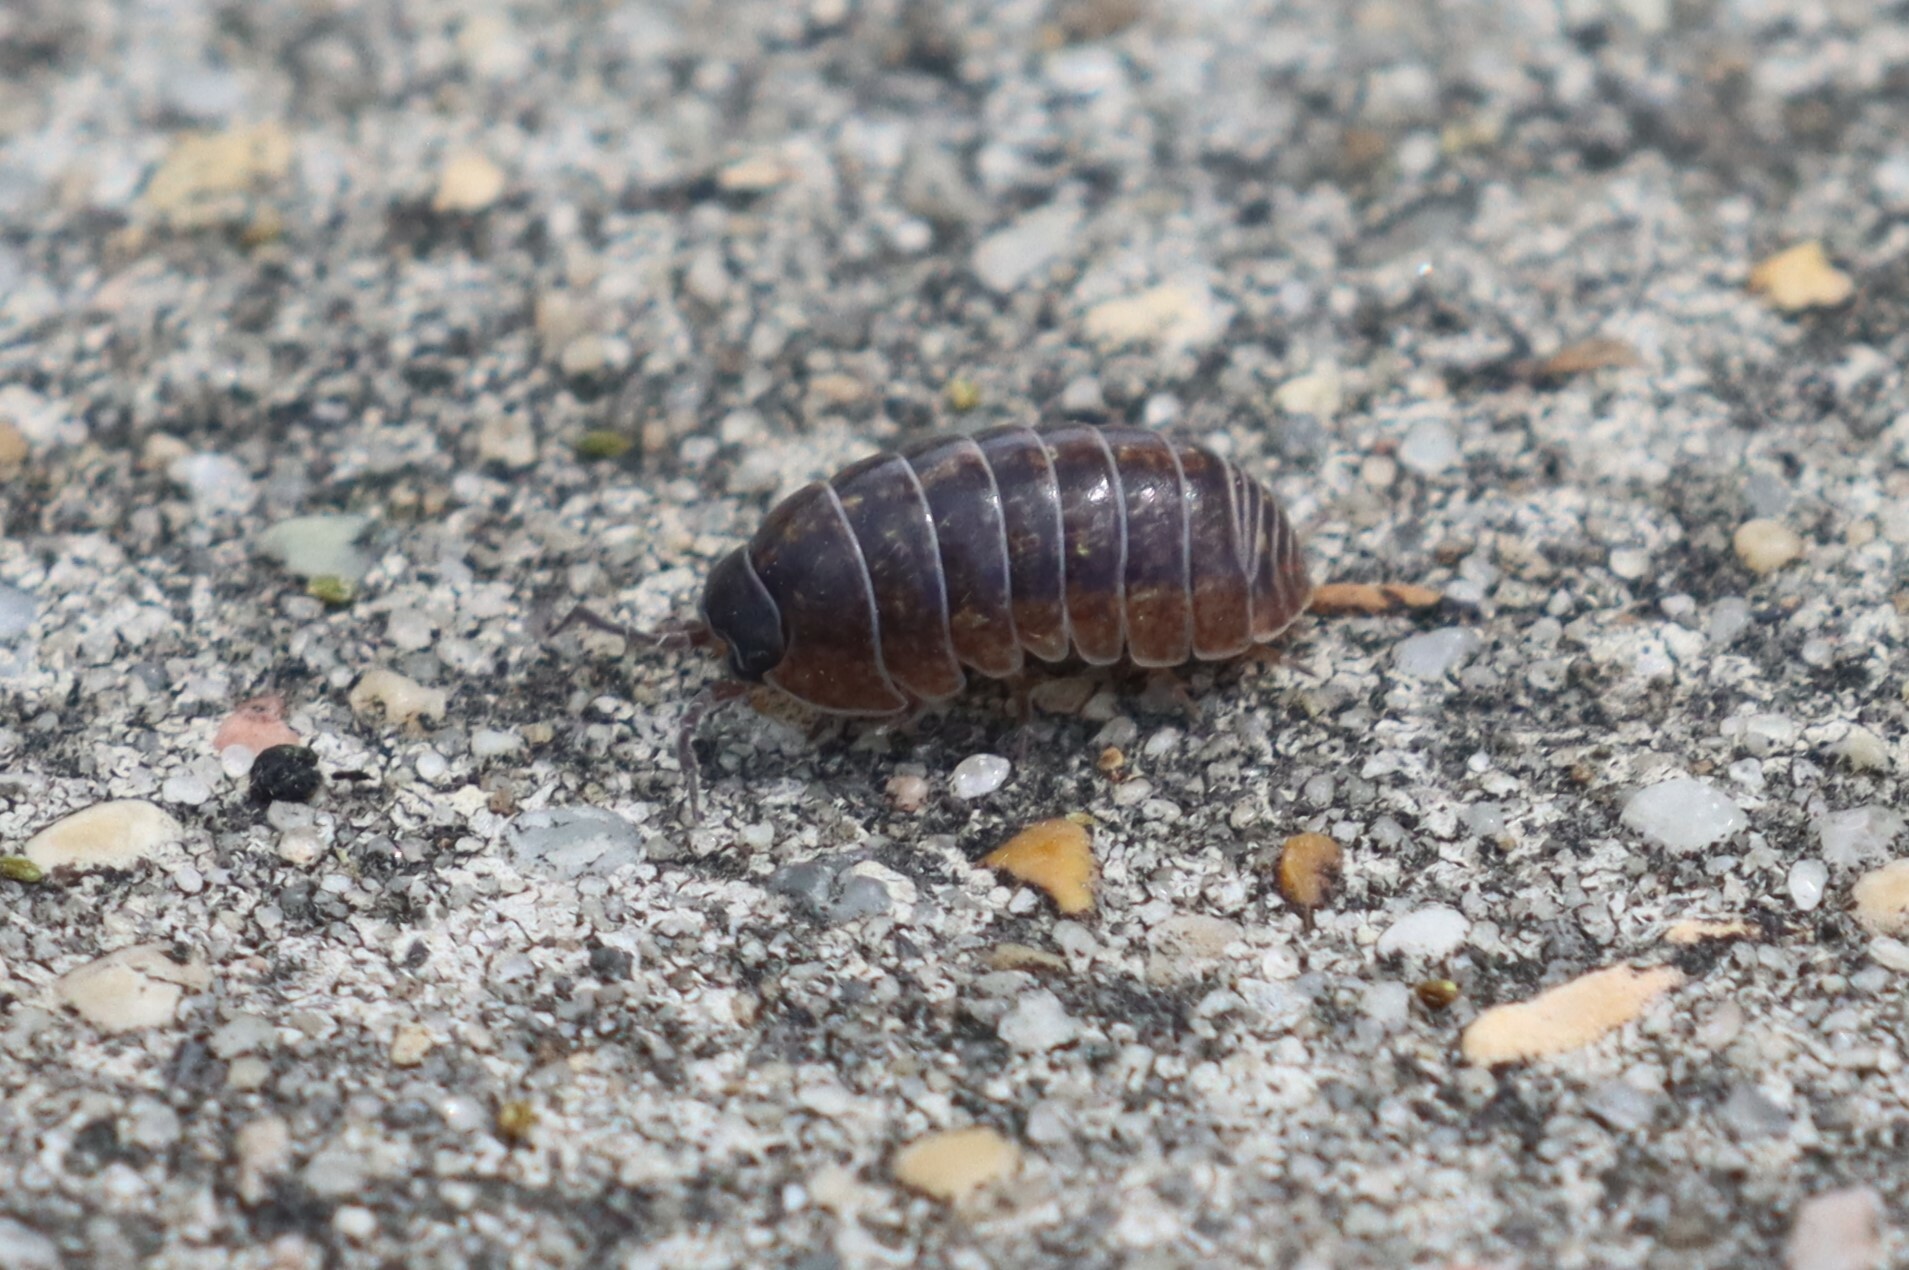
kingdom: Animalia
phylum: Arthropoda
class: Malacostraca
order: Isopoda
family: Armadillidiidae
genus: Armadillidium
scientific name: Armadillidium vulgare
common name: Common pill woodlouse
